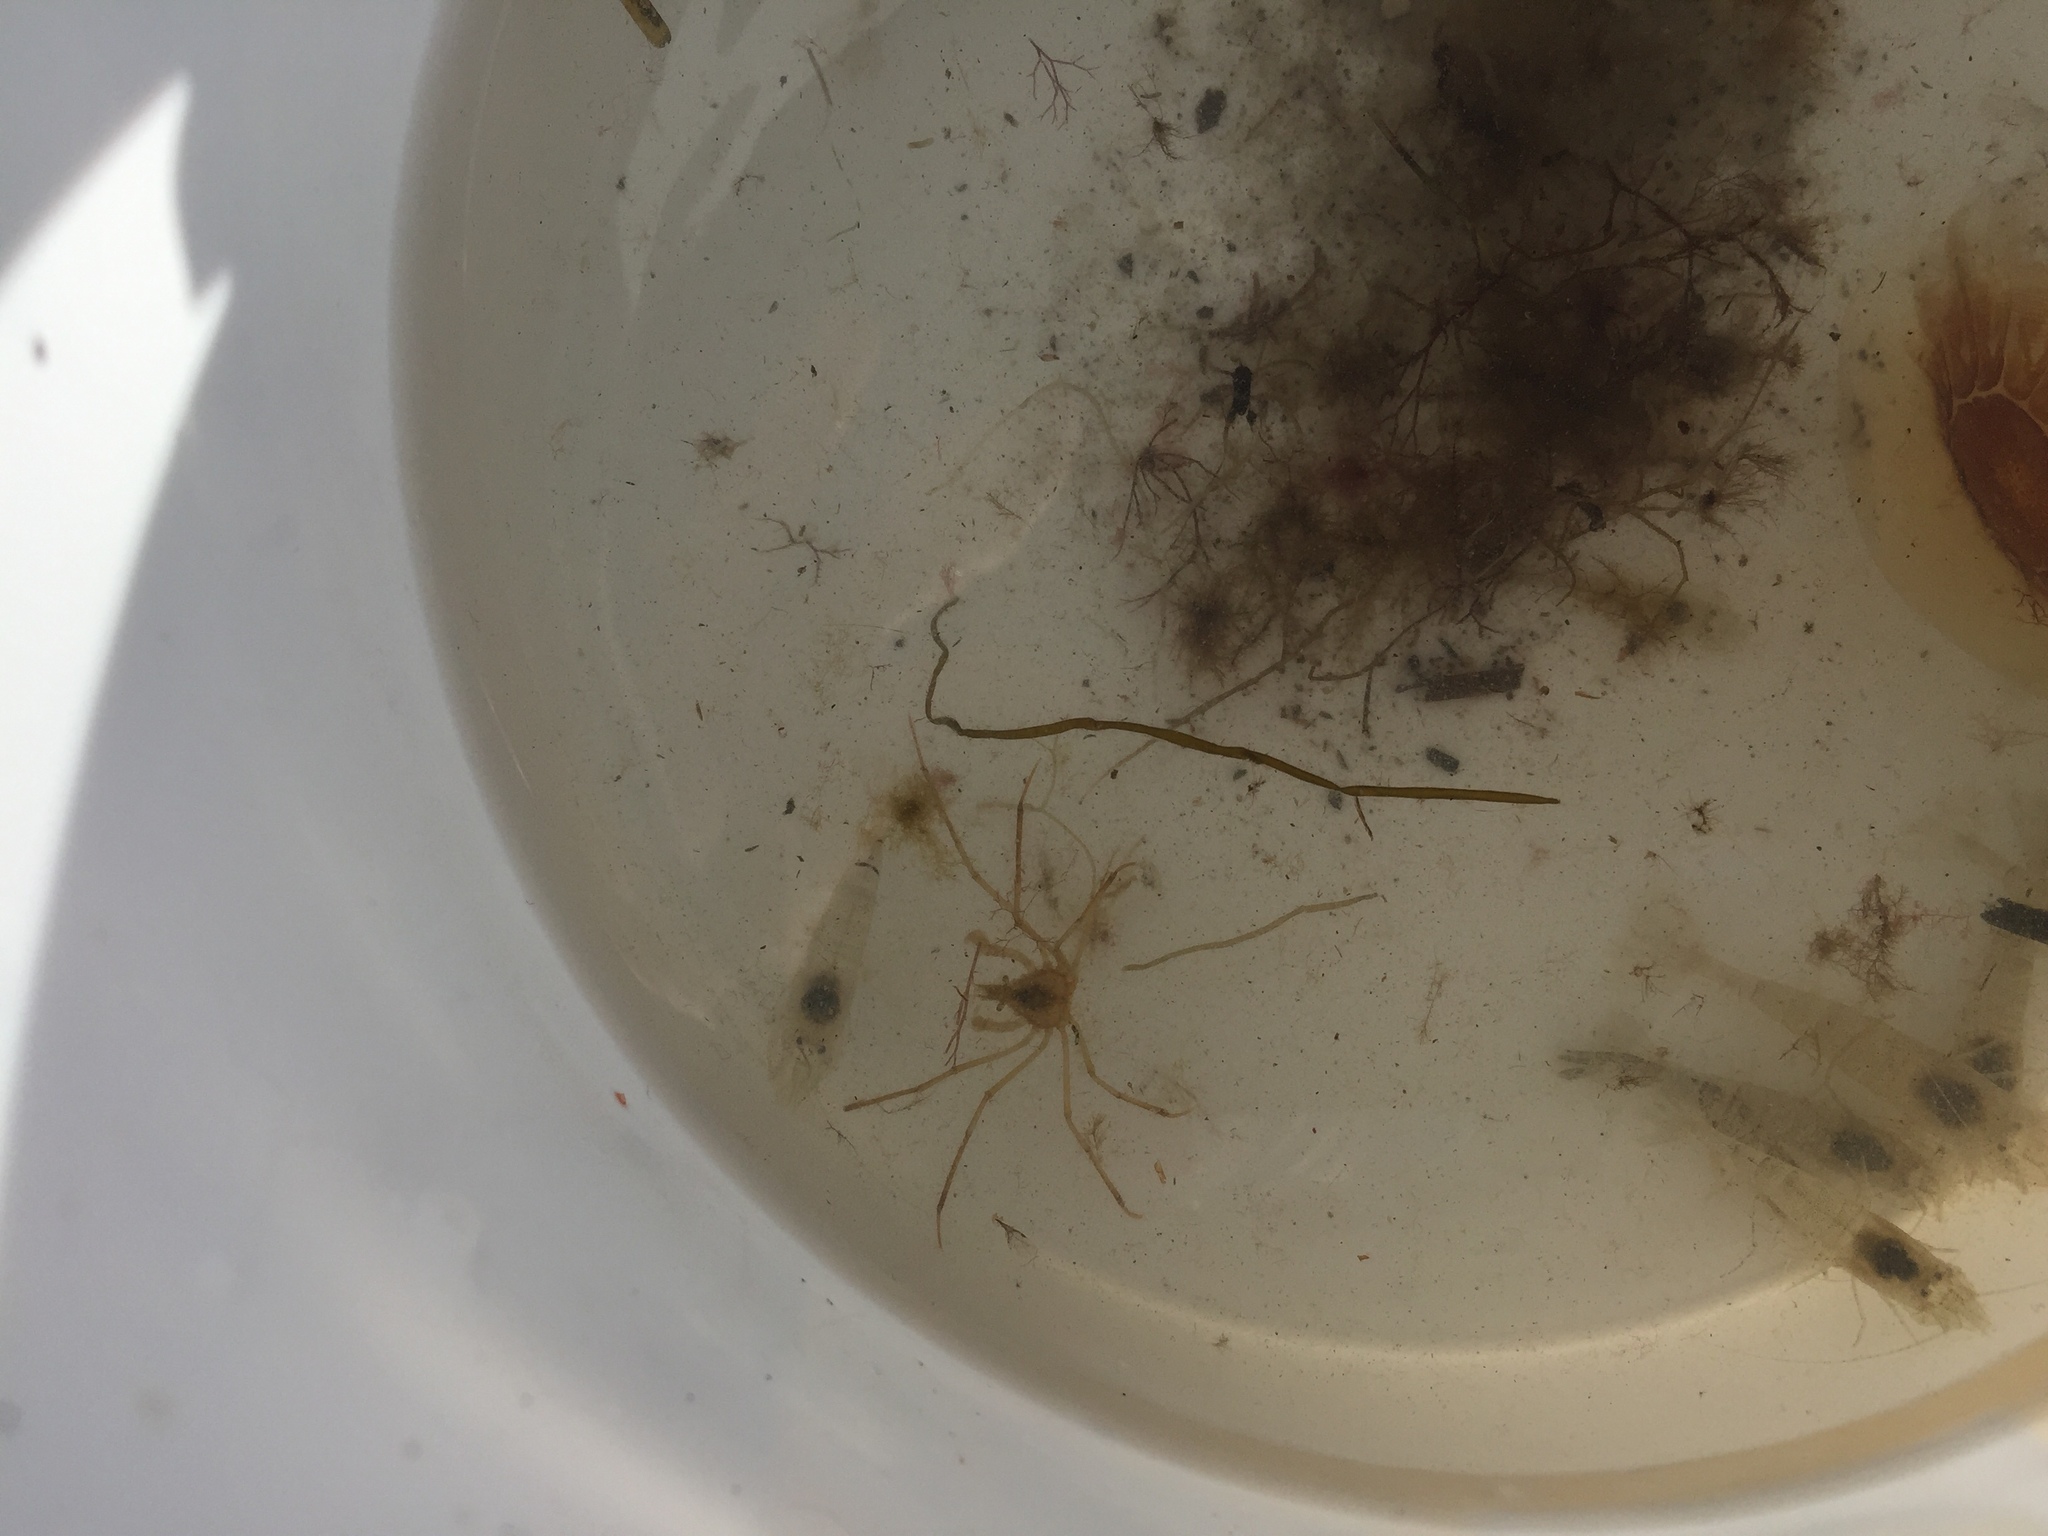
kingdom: Animalia
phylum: Arthropoda
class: Malacostraca
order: Decapoda
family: Inachidae
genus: Macropodia
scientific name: Macropodia rostrata
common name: Long-legged spider crab
